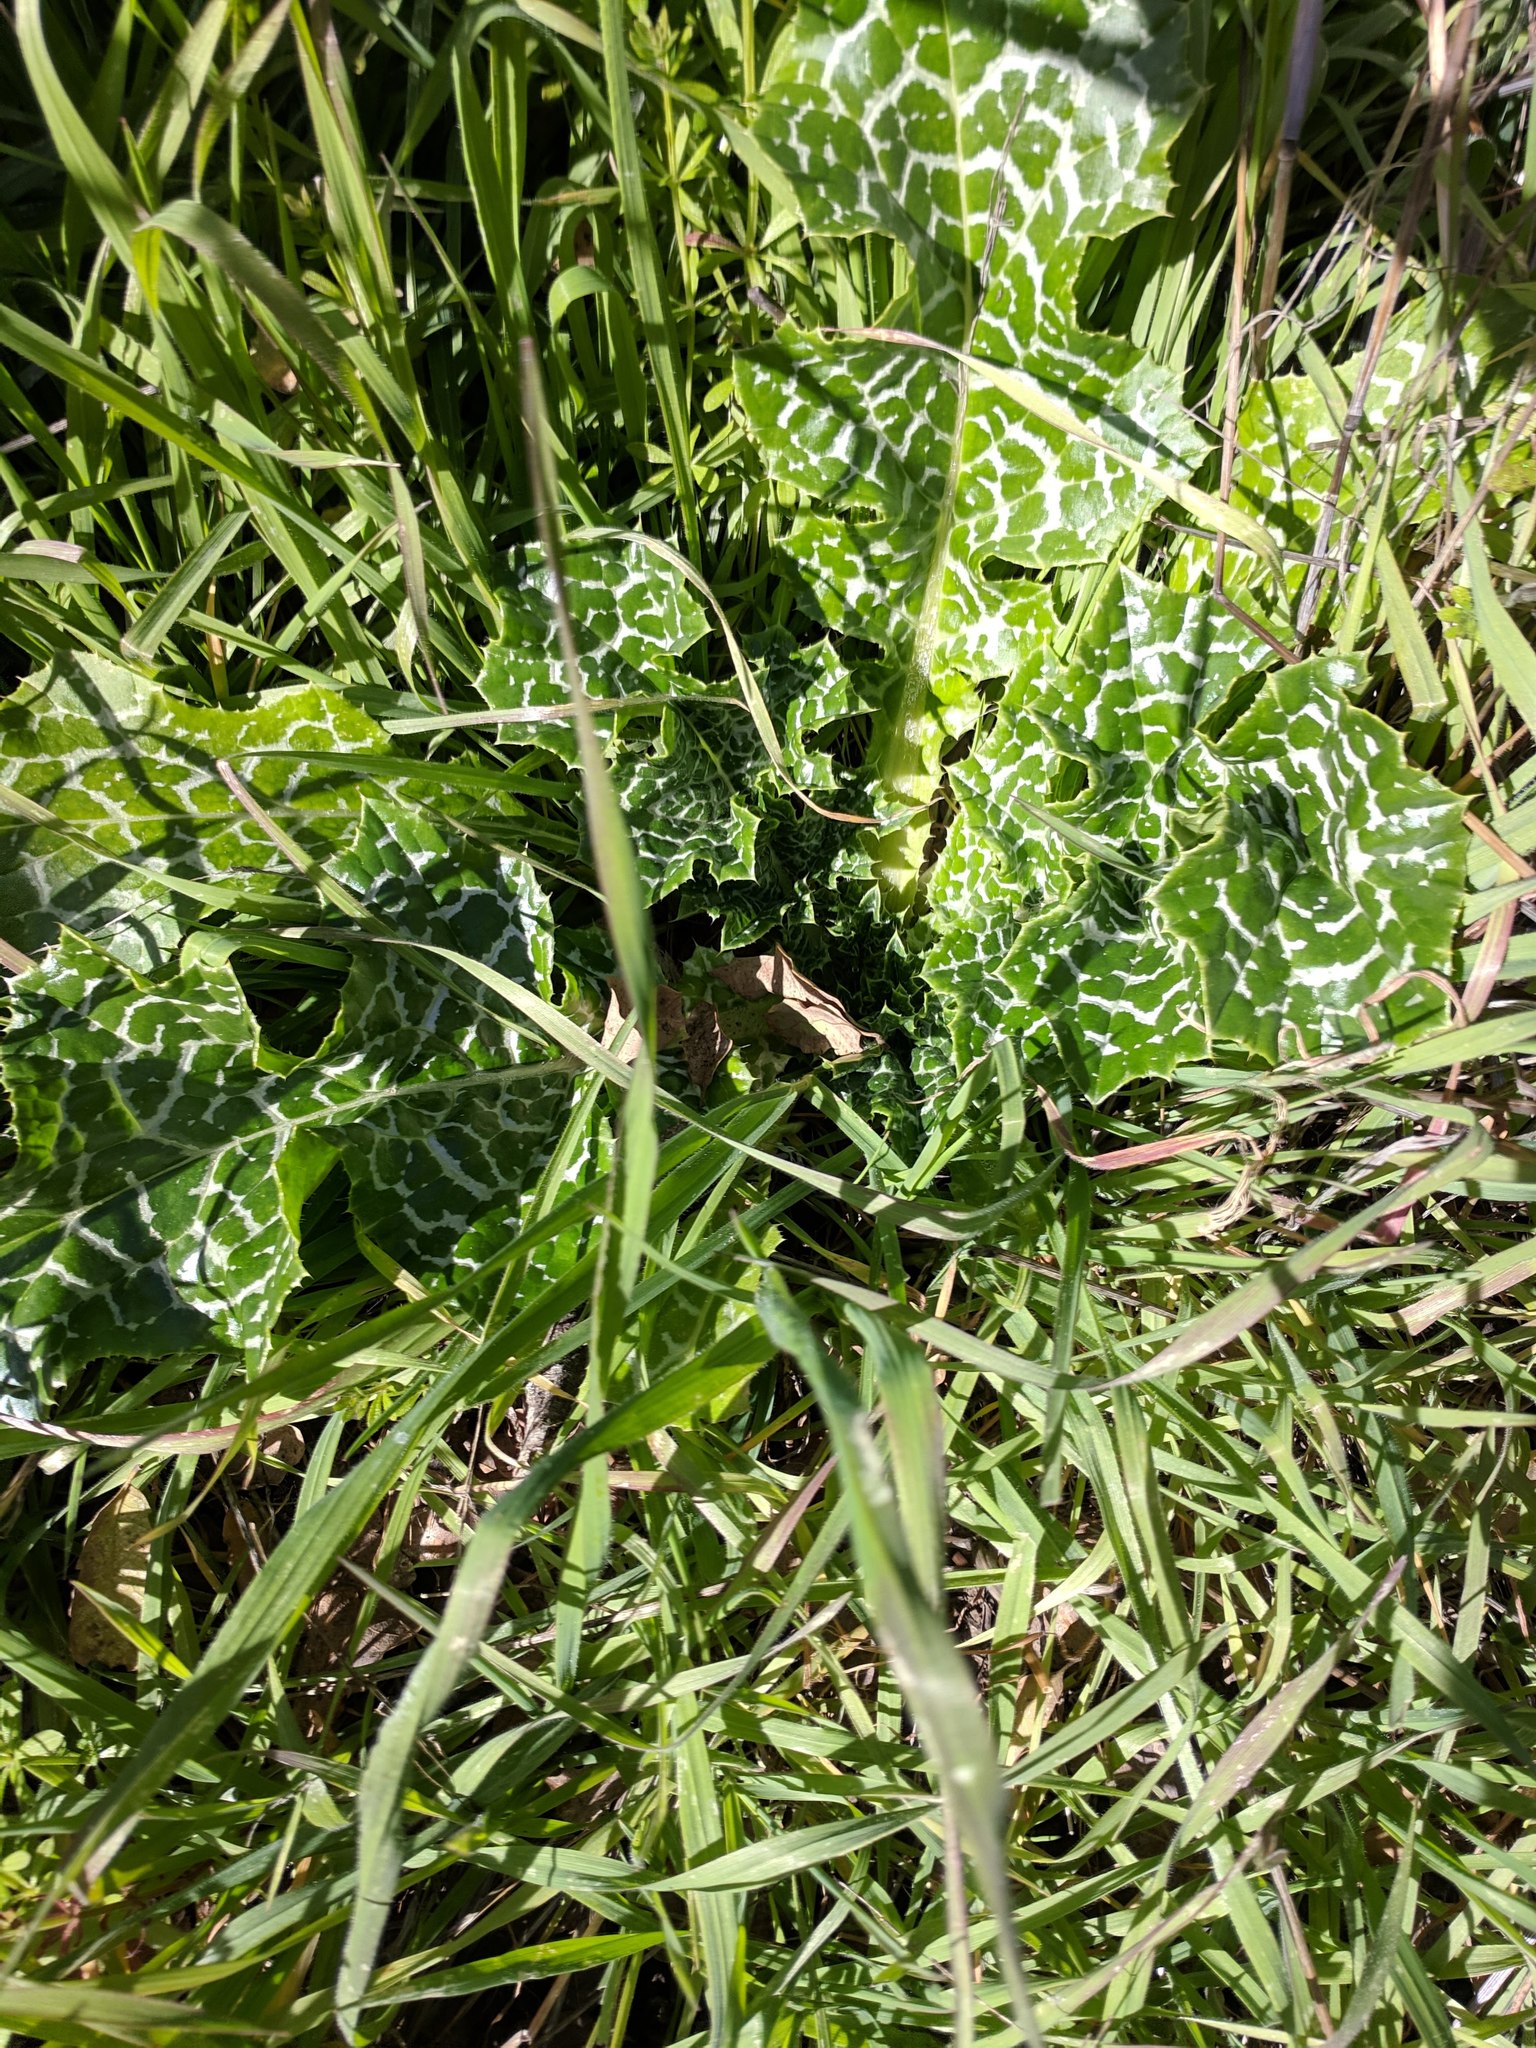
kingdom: Plantae
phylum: Tracheophyta
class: Magnoliopsida
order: Asterales
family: Asteraceae
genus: Silybum
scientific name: Silybum marianum
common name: Milk thistle
